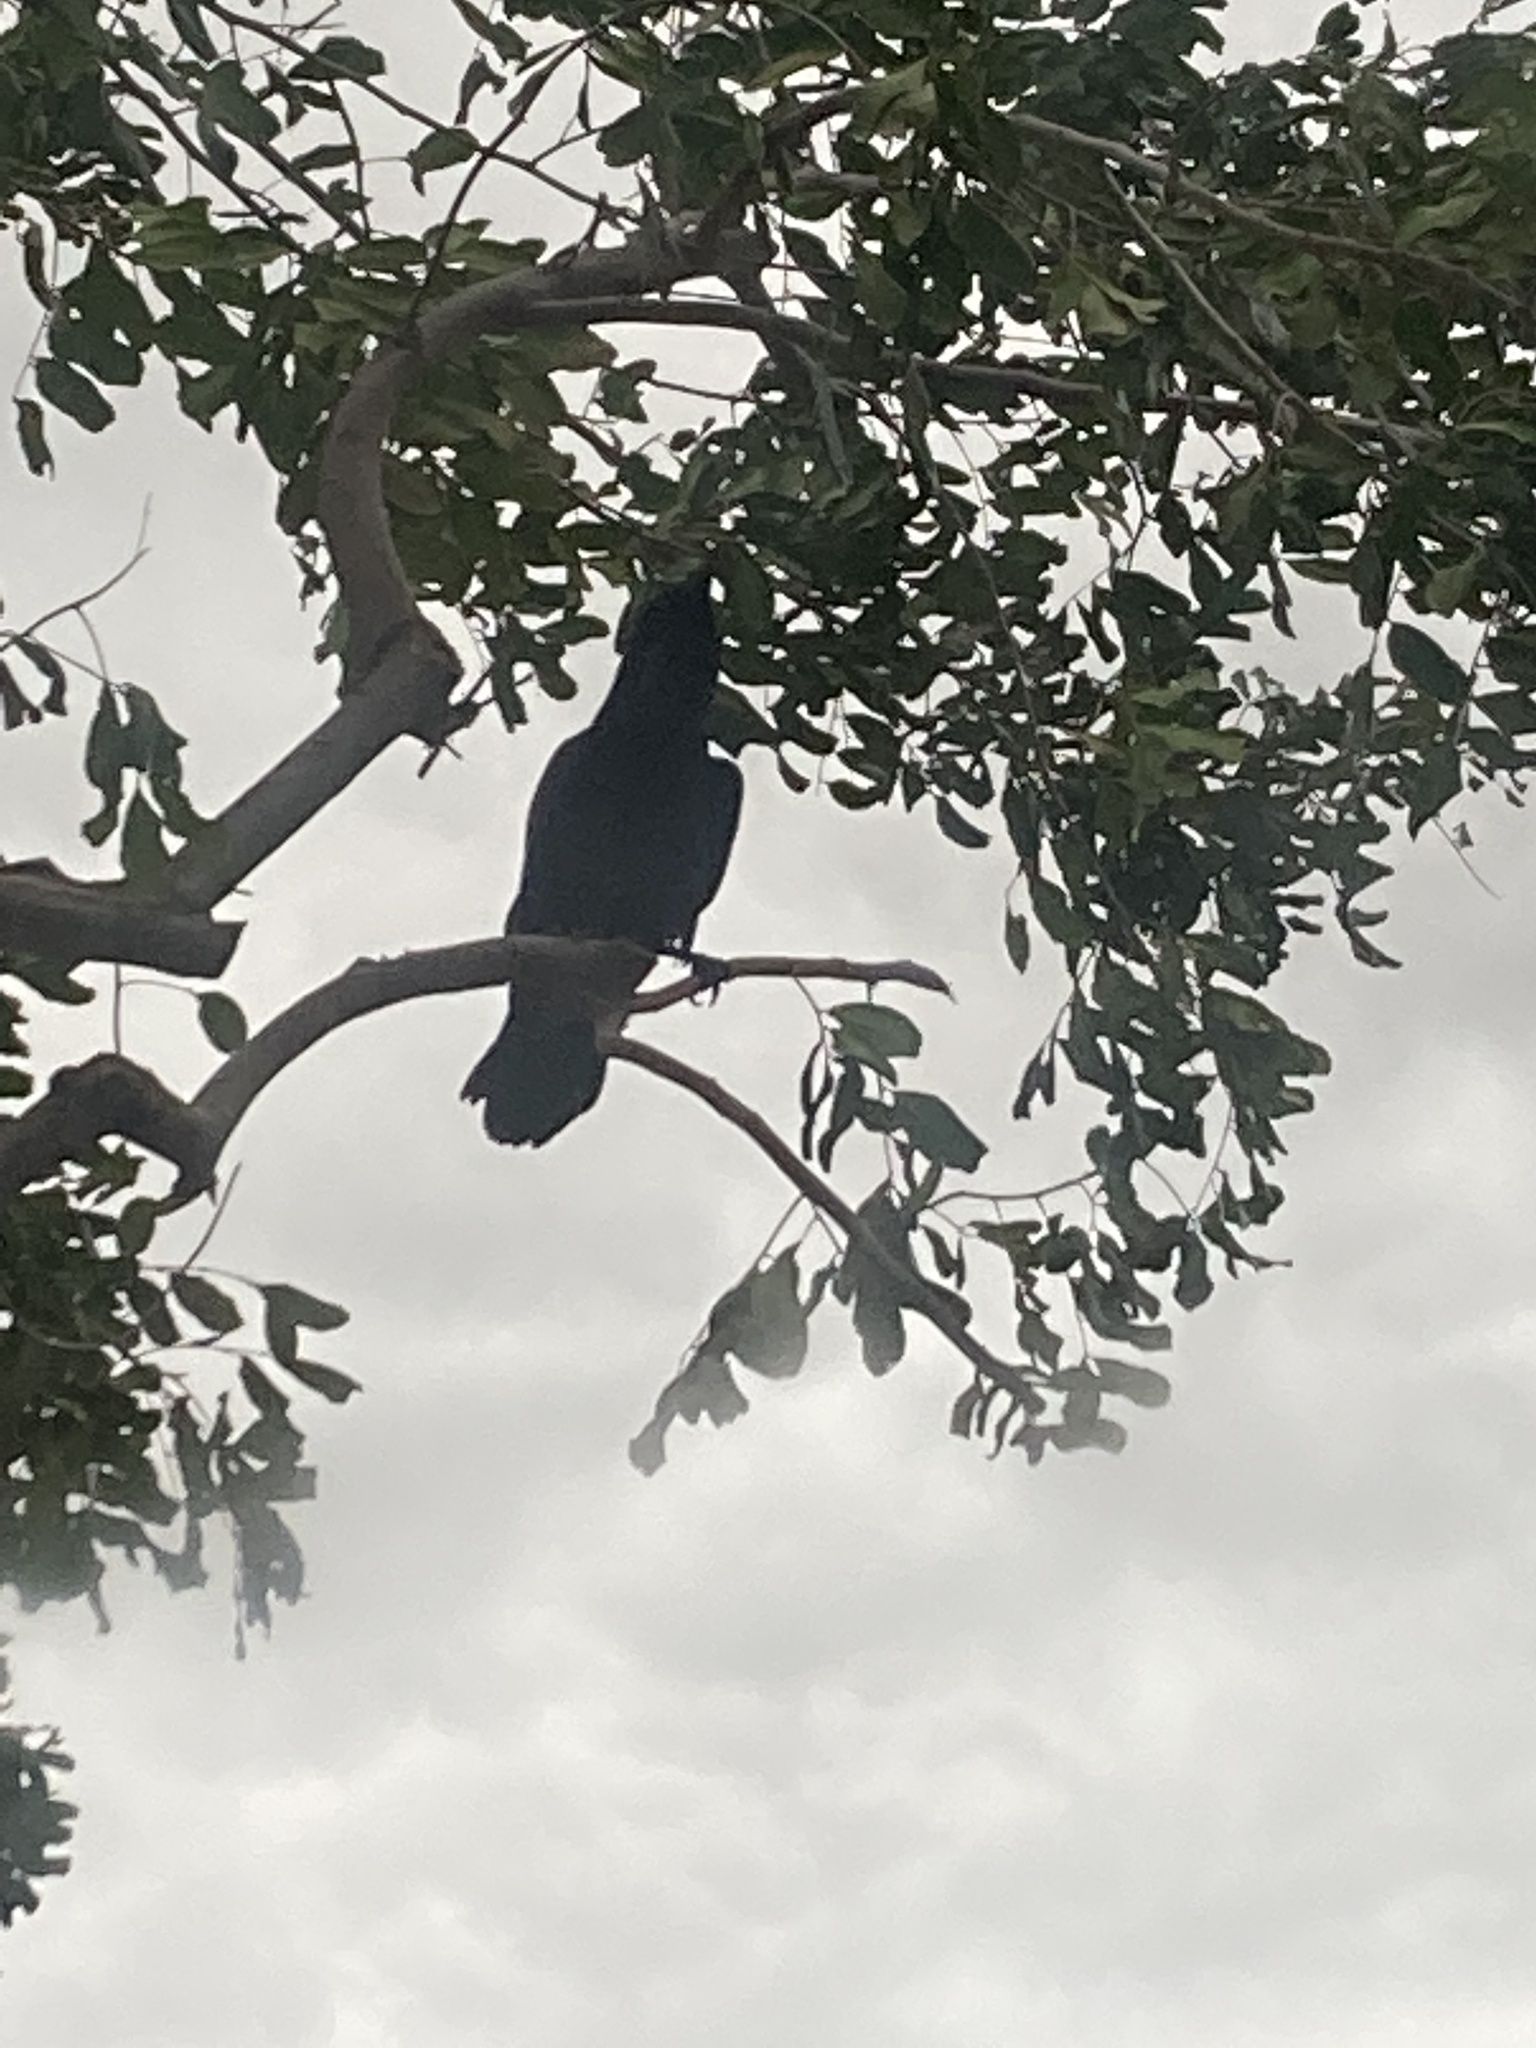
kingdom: Animalia
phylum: Chordata
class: Aves
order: Passeriformes
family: Corvidae
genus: Corvus
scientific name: Corvus brachyrhynchos
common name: American crow
